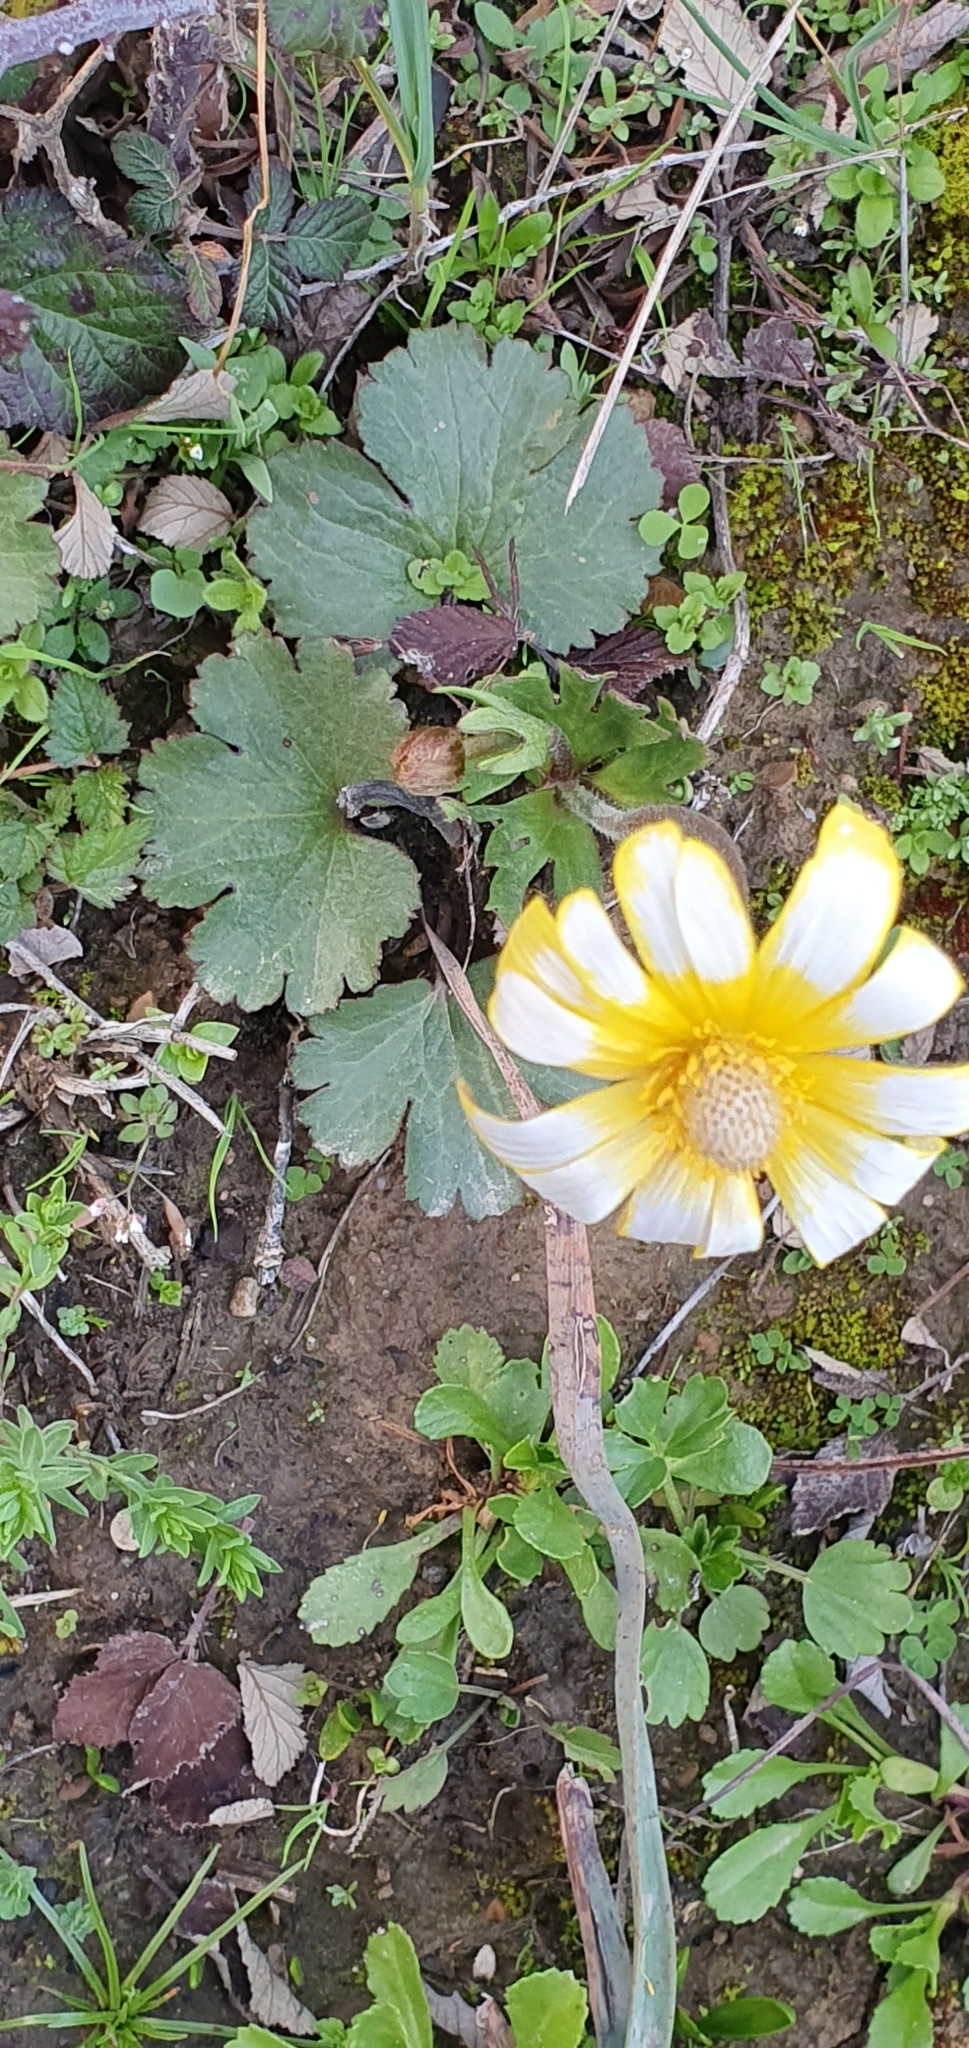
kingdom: Plantae
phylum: Tracheophyta
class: Magnoliopsida
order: Ranunculales
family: Ranunculaceae
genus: Anemone
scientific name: Anemone palmata
